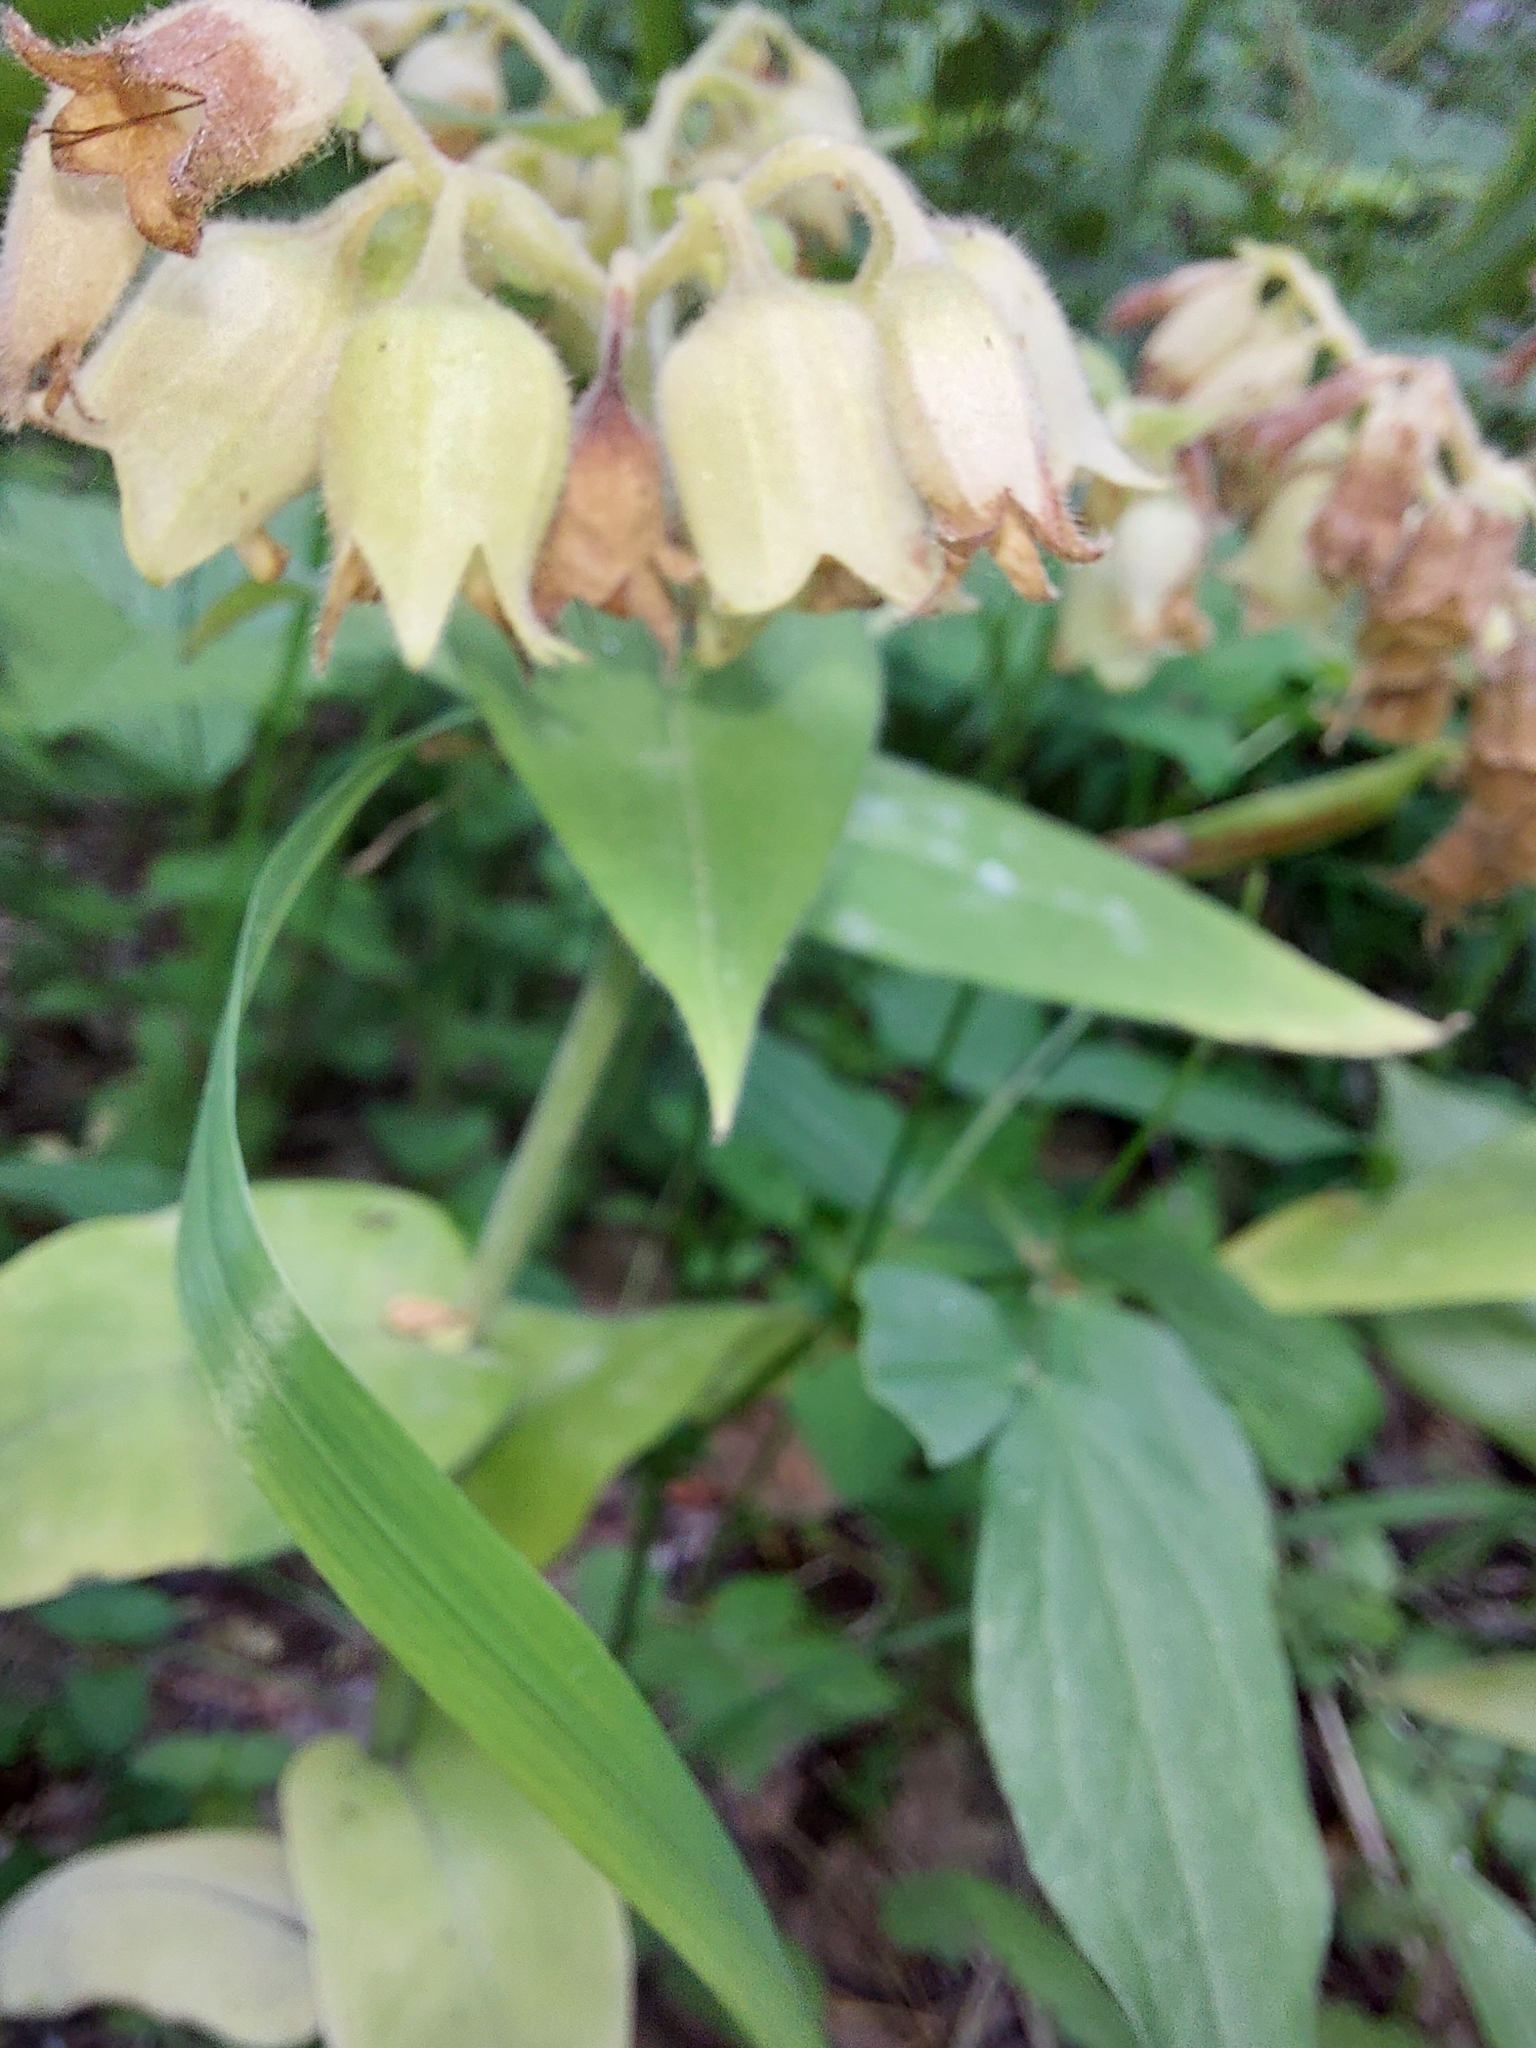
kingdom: Plantae
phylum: Tracheophyta
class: Magnoliopsida
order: Boraginales
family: Boraginaceae
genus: Pulmonaria
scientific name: Pulmonaria mollis
